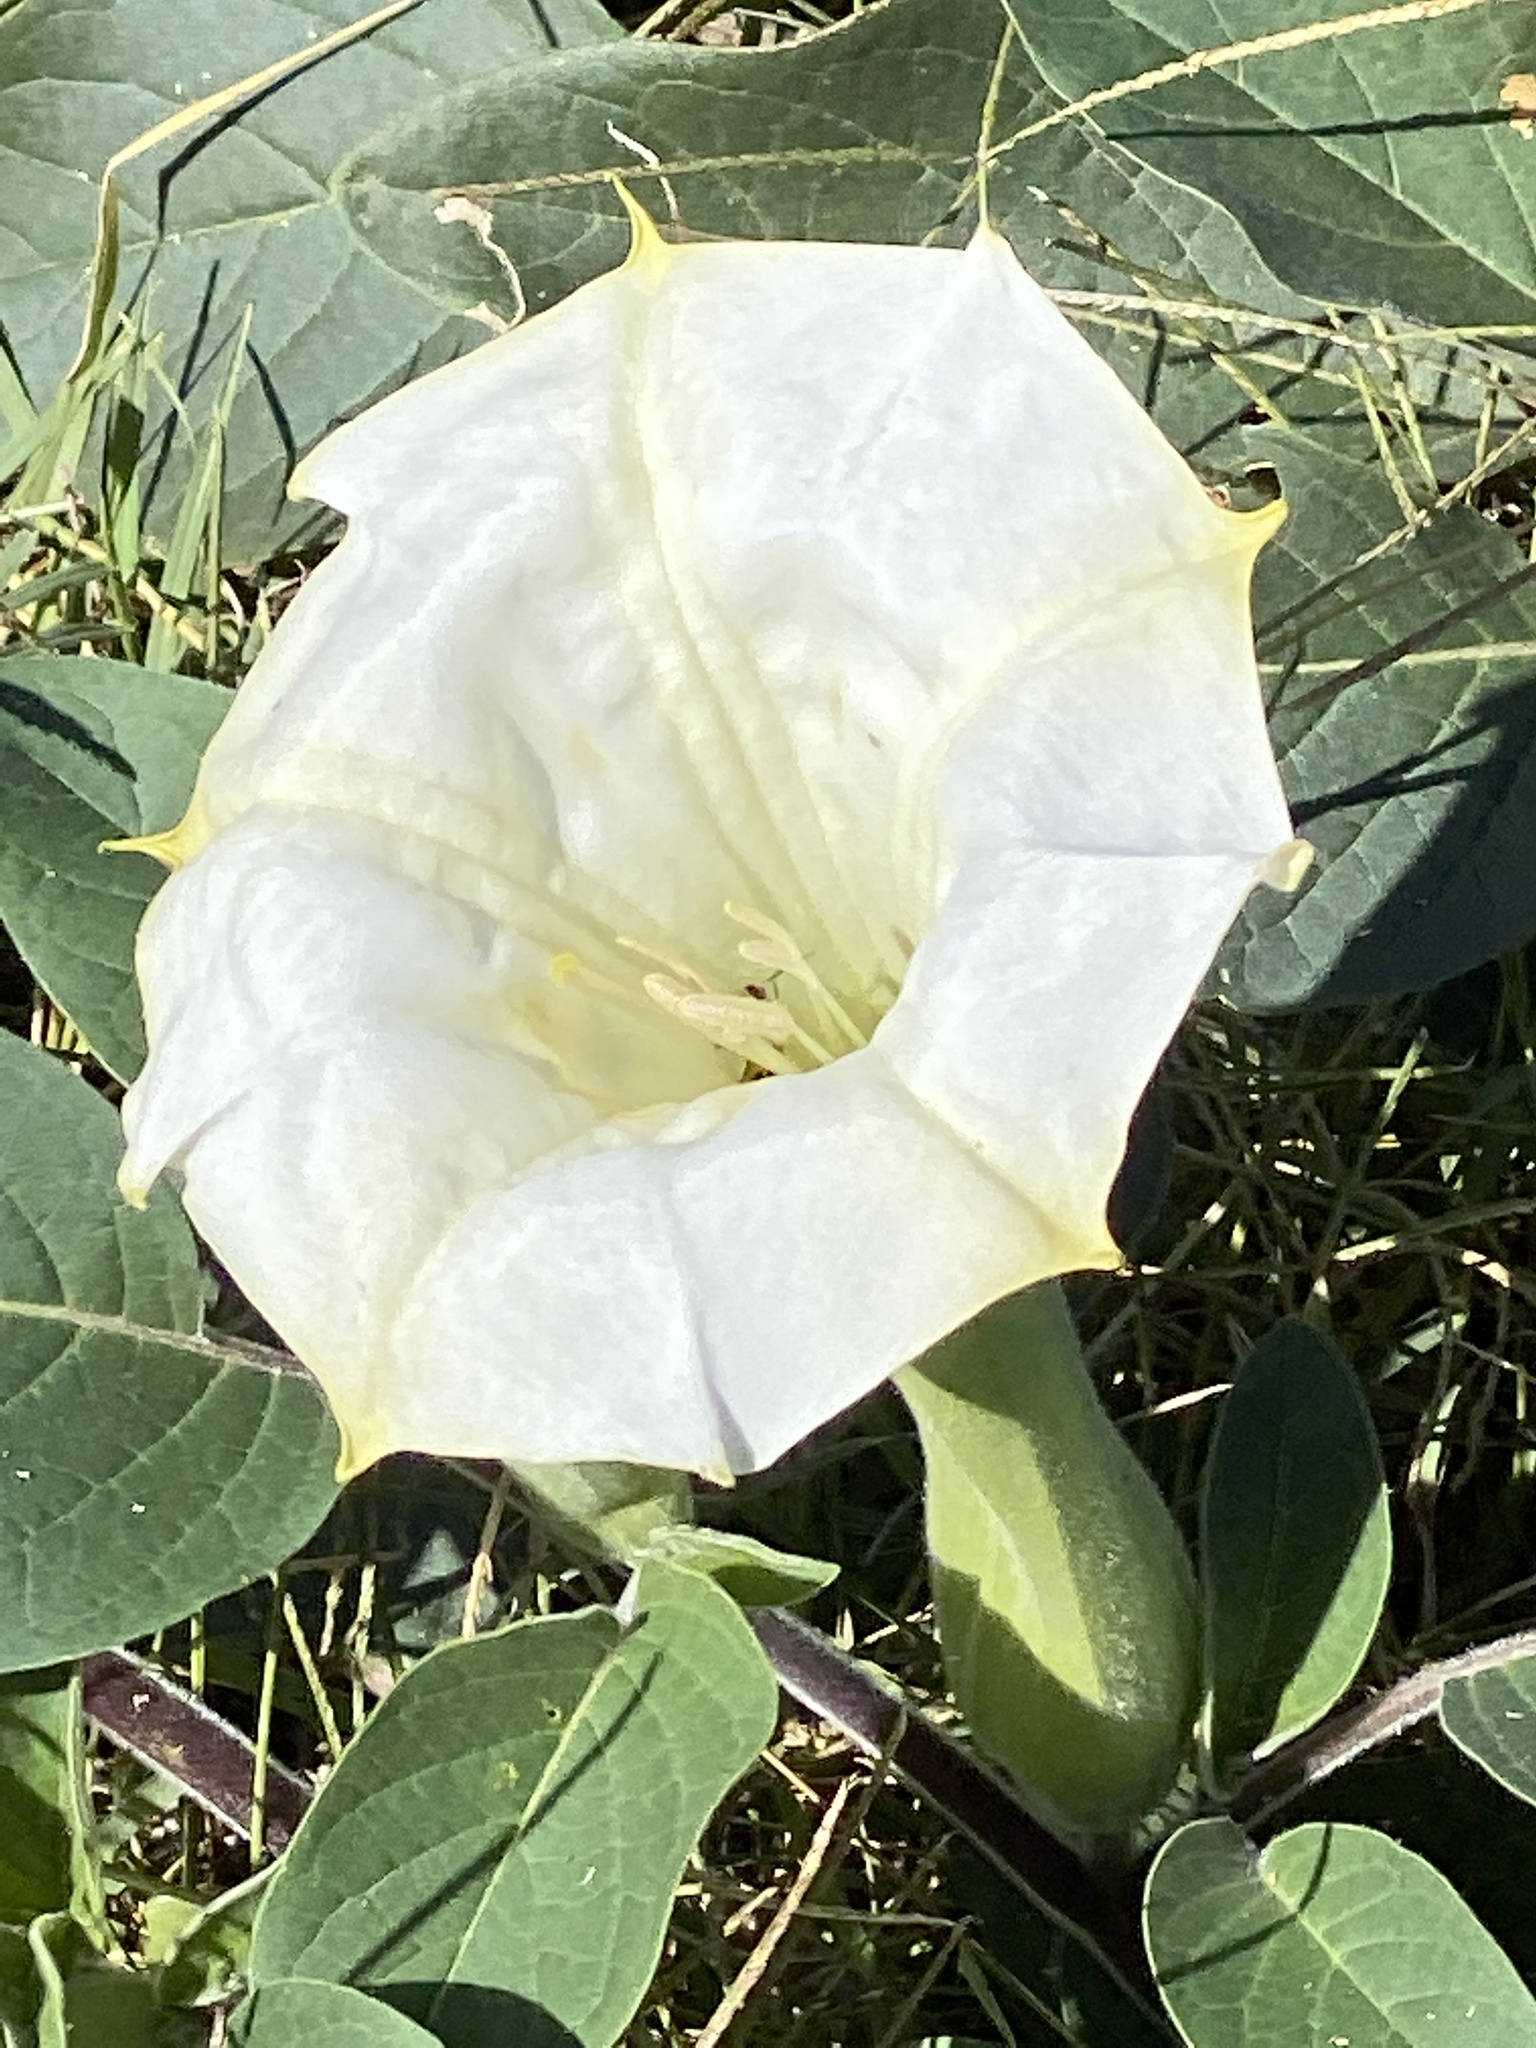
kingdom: Plantae
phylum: Tracheophyta
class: Magnoliopsida
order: Solanales
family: Solanaceae
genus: Datura
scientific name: Datura wrightii
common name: Sacred thorn-apple
